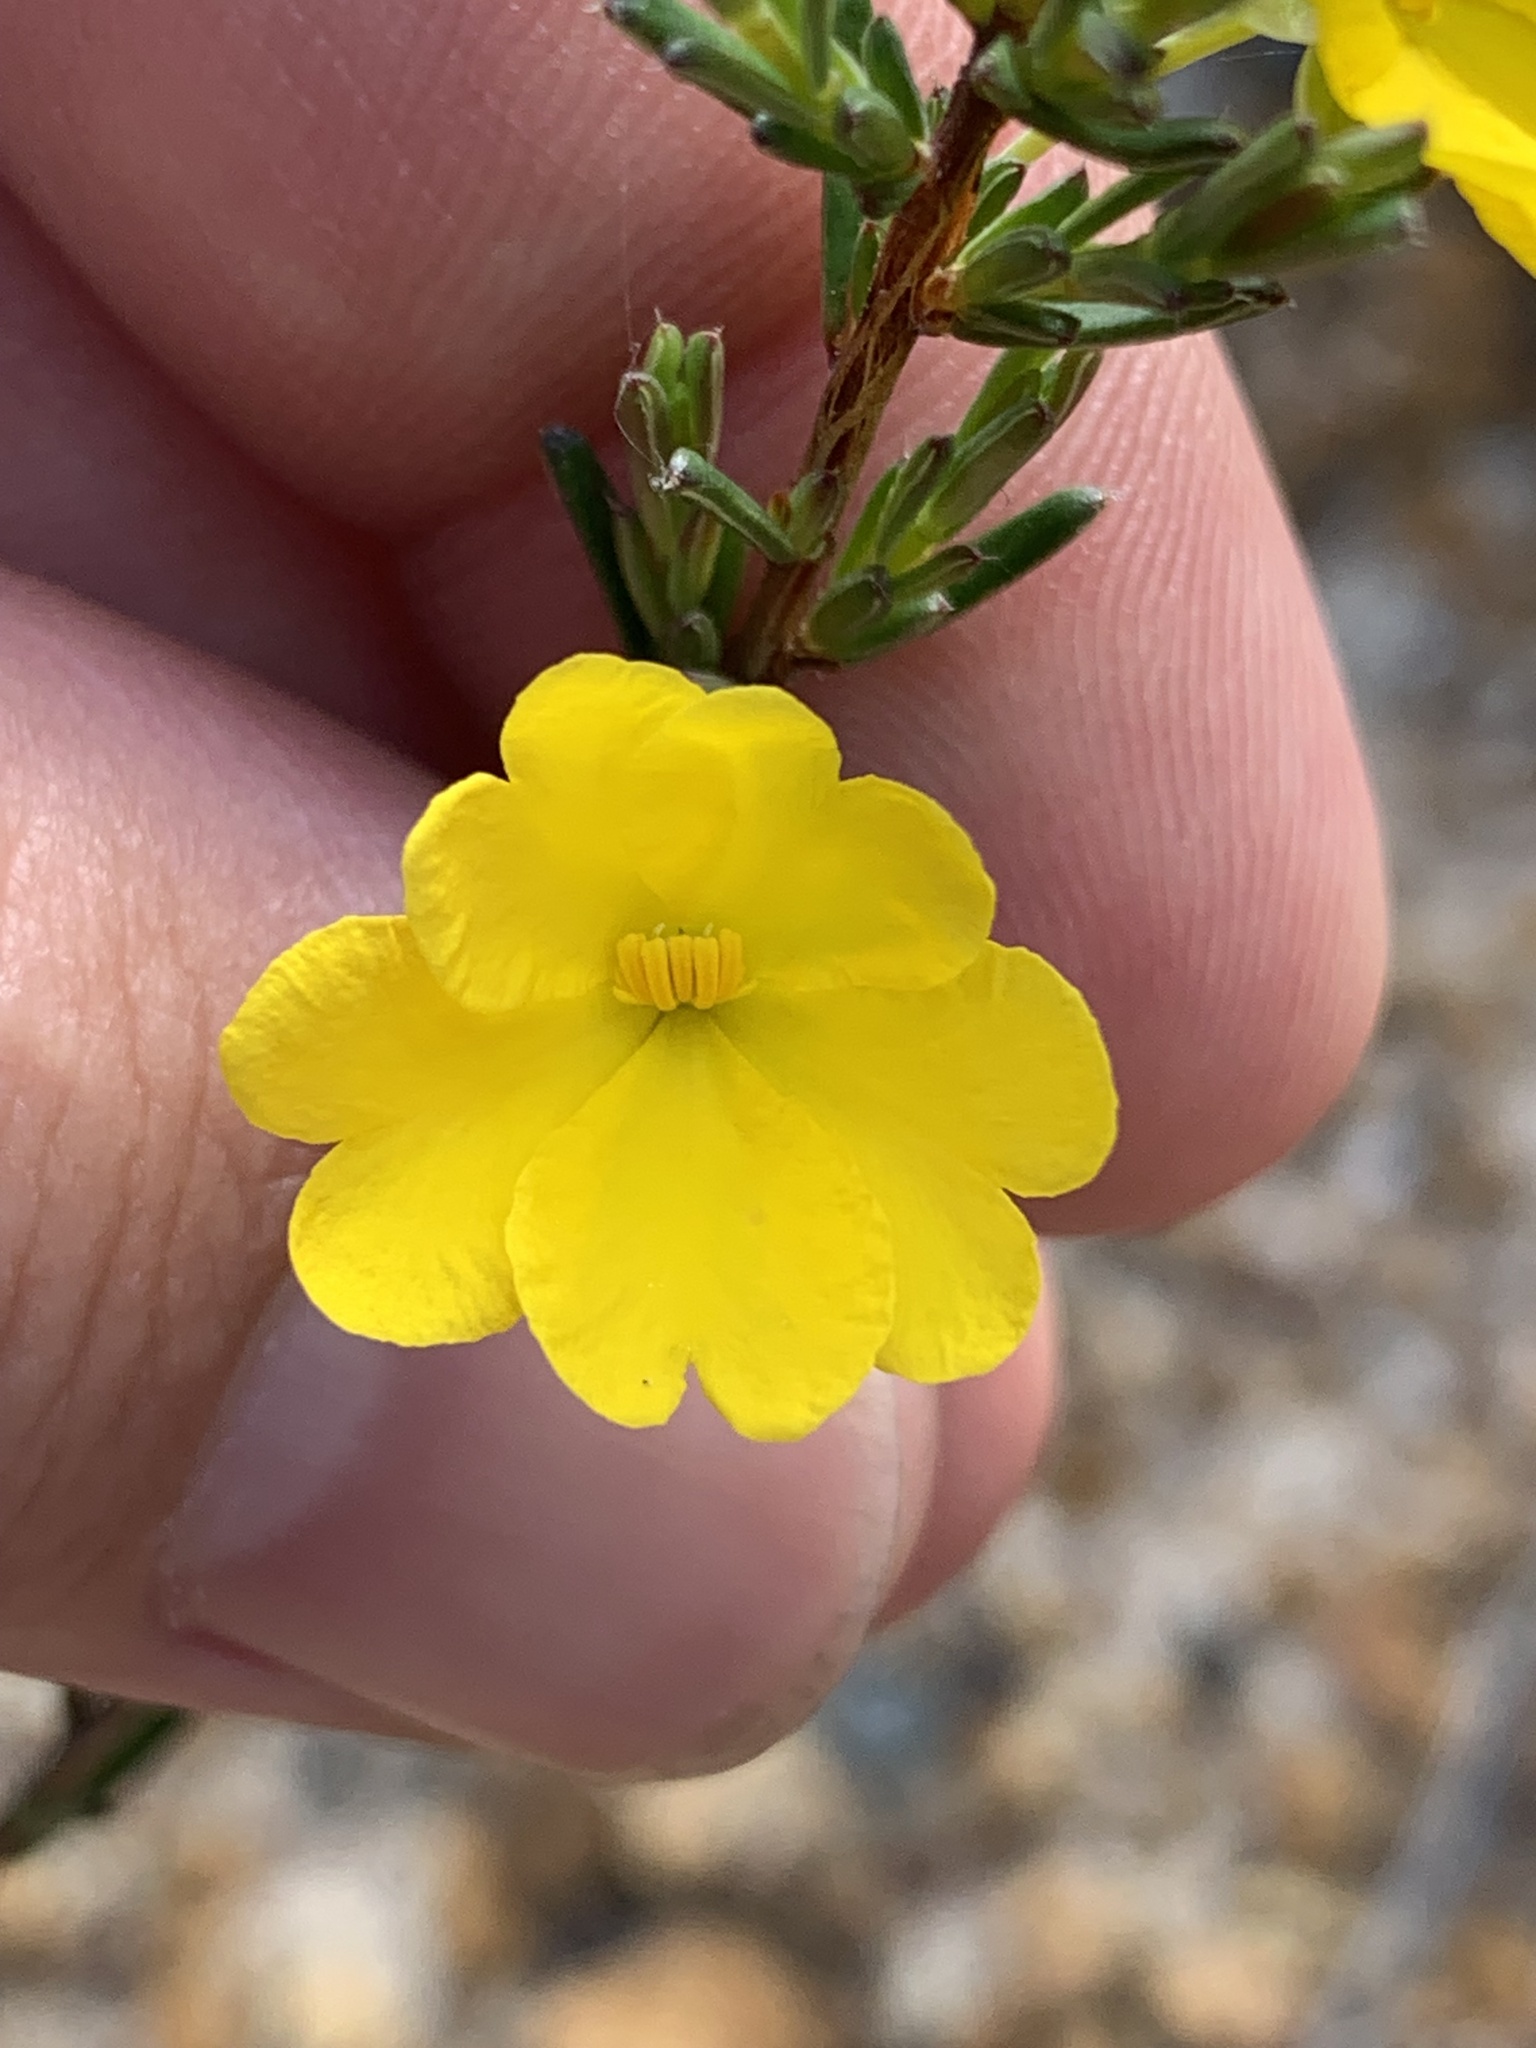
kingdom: Plantae
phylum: Tracheophyta
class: Magnoliopsida
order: Dilleniales
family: Dilleniaceae
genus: Hibbertia
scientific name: Hibbertia lineata
